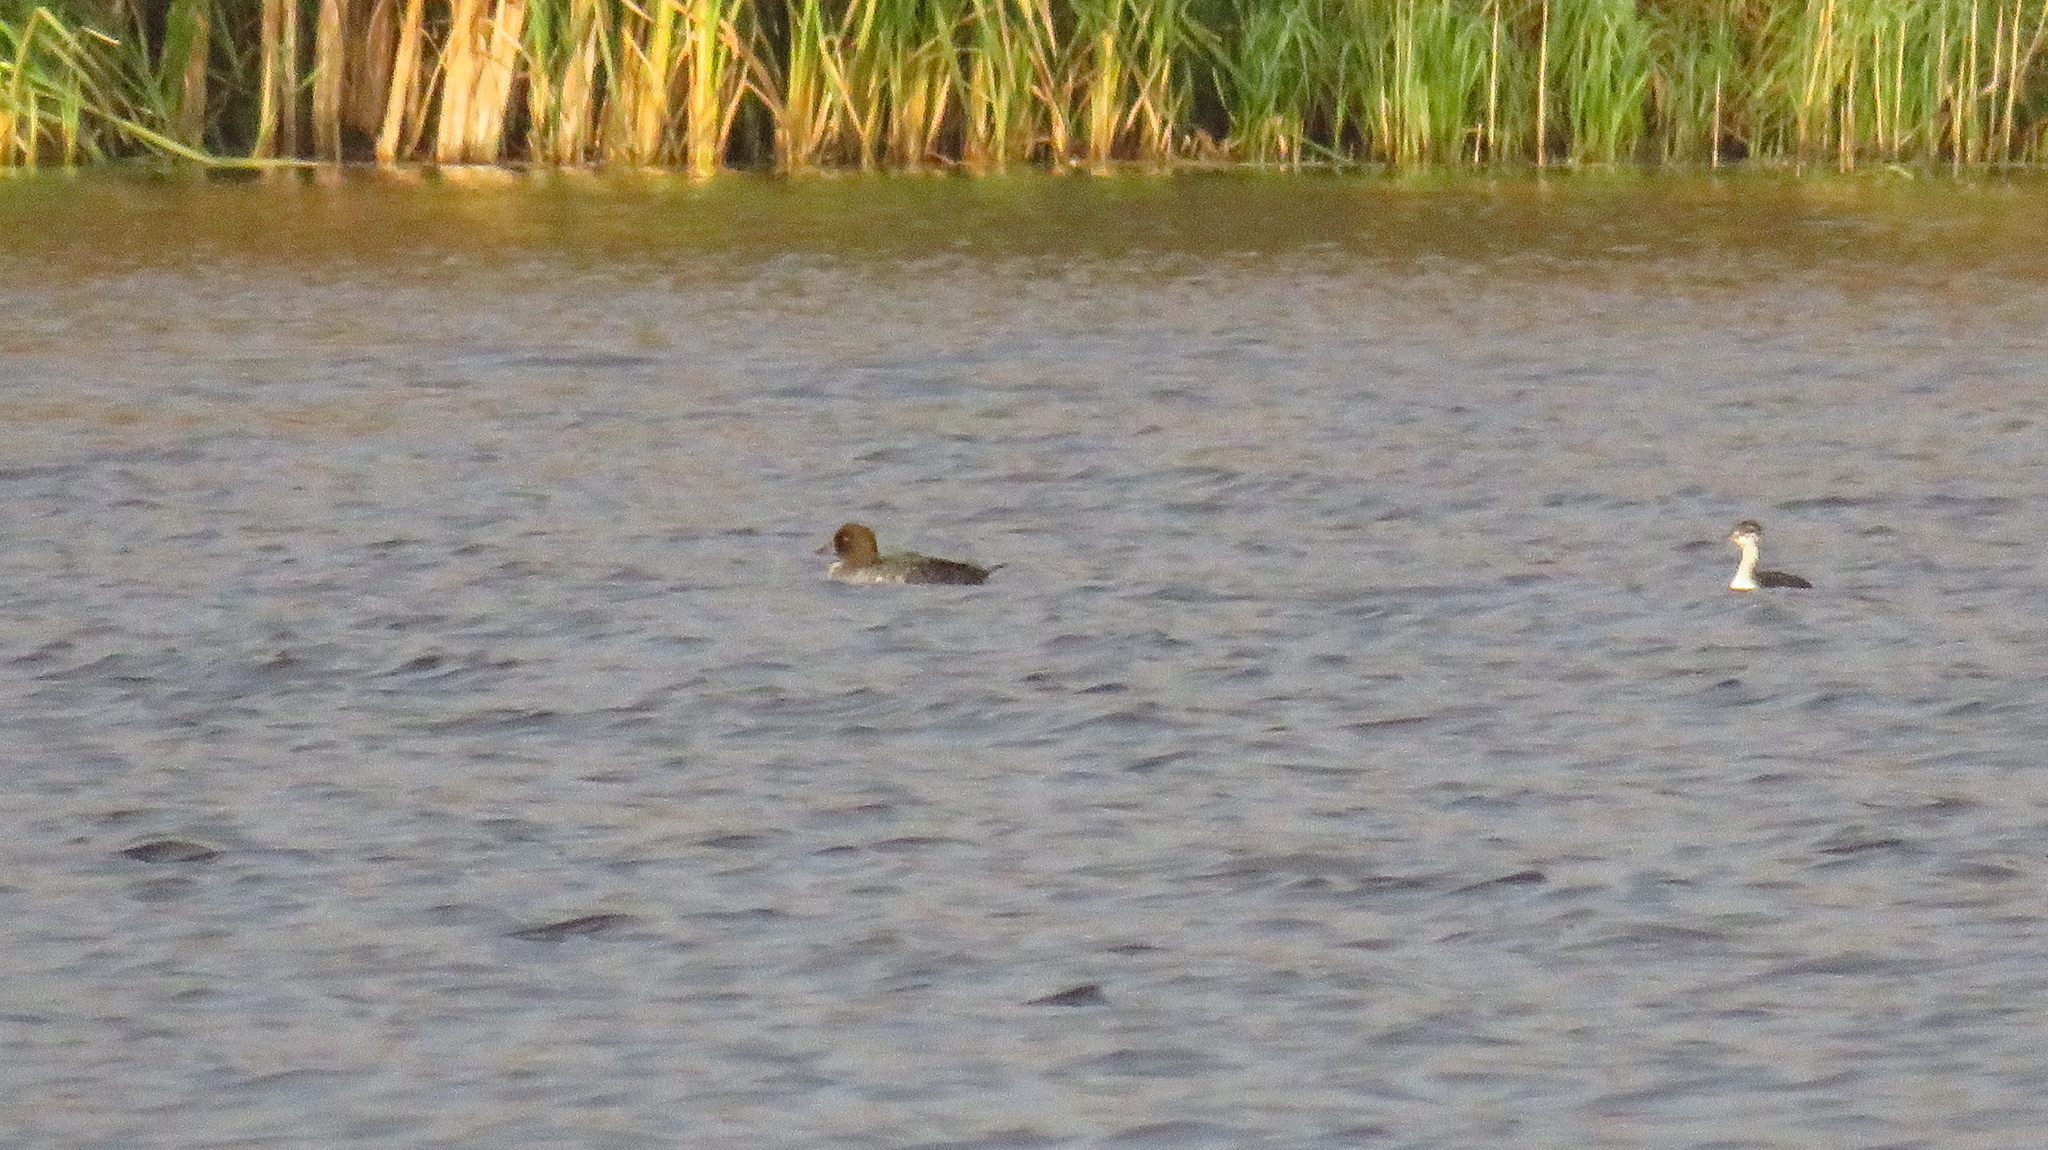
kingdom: Animalia
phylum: Chordata
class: Aves
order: Anseriformes
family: Anatidae
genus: Bucephala
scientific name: Bucephala clangula
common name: Common goldeneye
